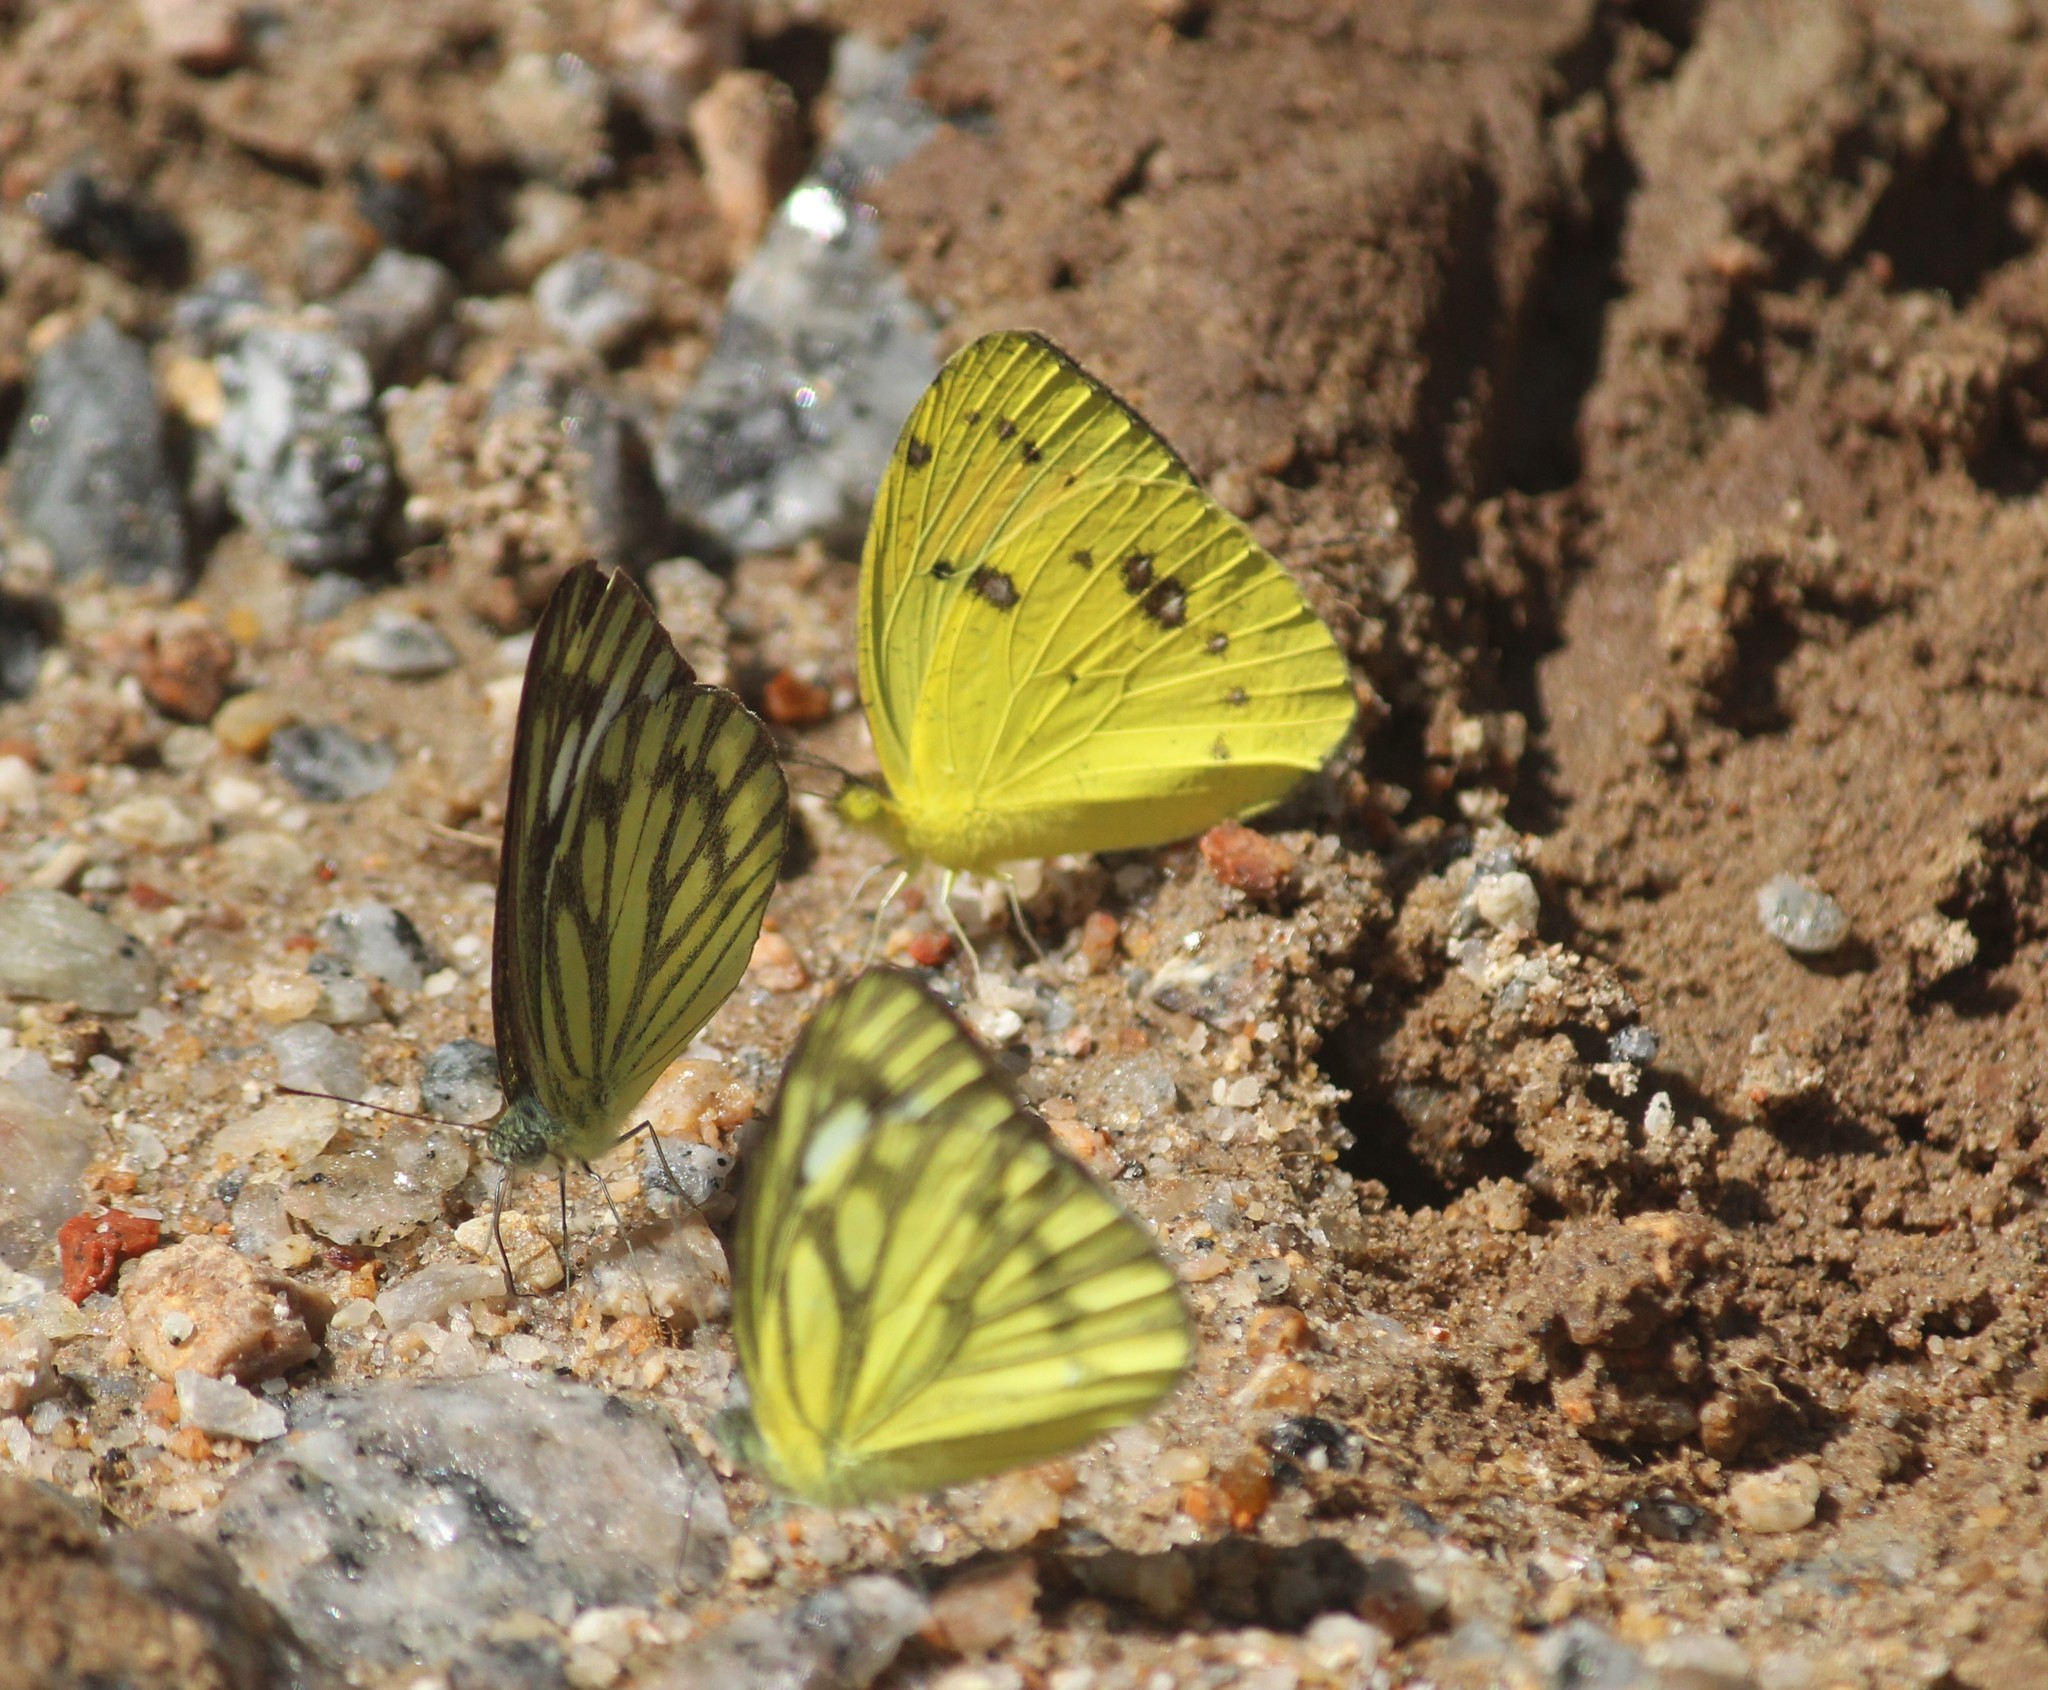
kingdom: Animalia
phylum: Arthropoda
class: Insecta
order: Lepidoptera
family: Pieridae
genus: Ixias
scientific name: Ixias pyrene
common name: Yellow orange tip
